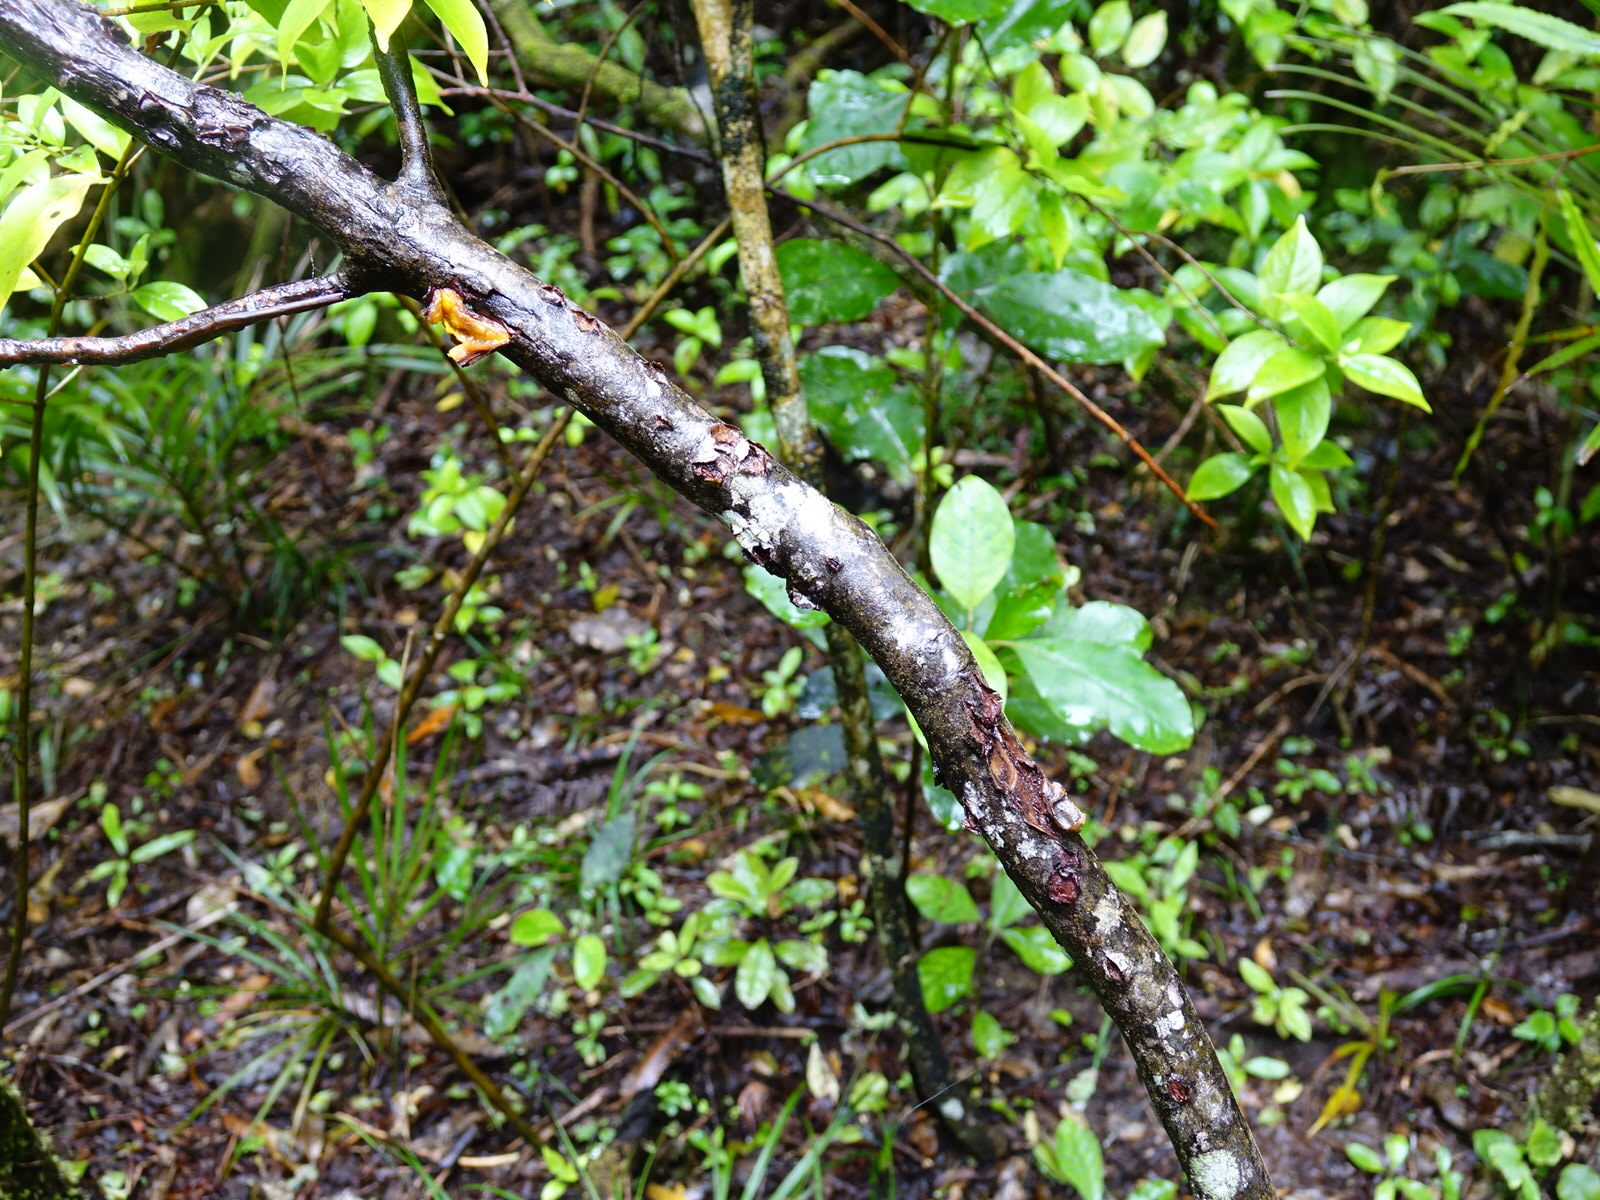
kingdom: Plantae
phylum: Tracheophyta
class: Magnoliopsida
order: Gentianales
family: Rubiaceae
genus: Coprosma
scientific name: Coprosma autumnalis
